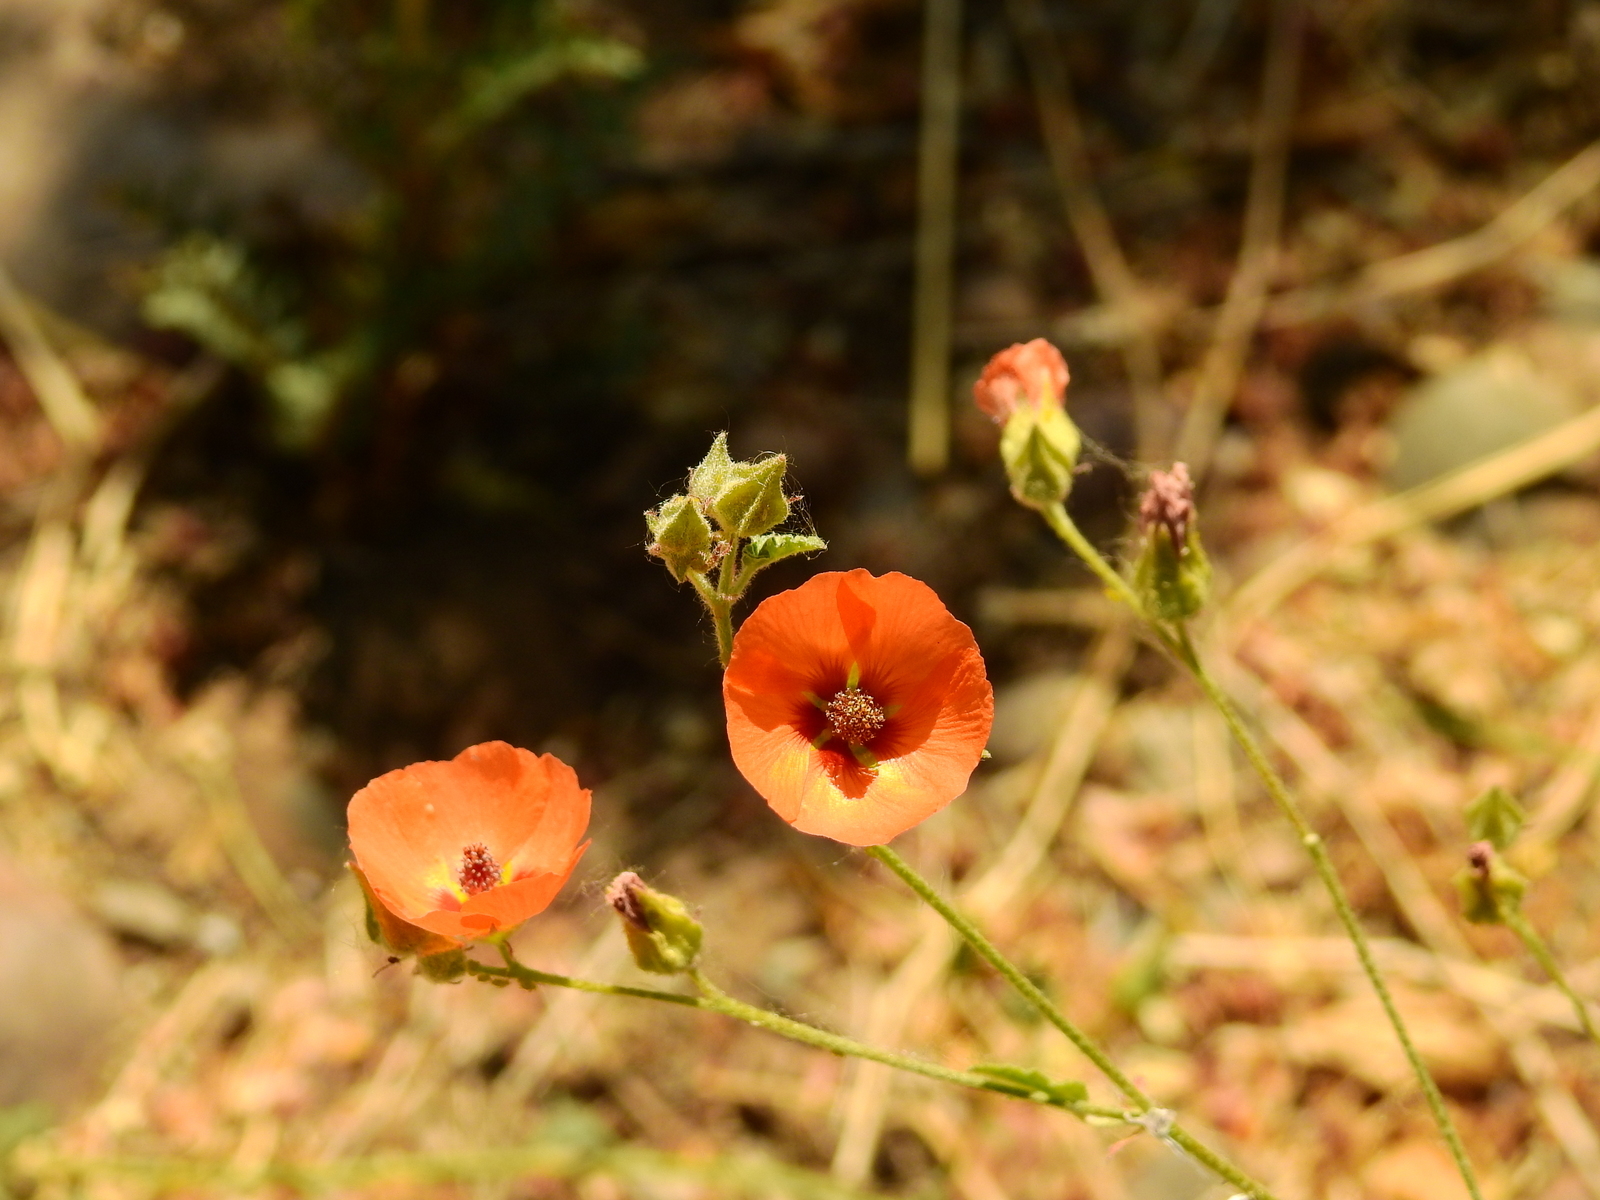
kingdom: Plantae
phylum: Tracheophyta
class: Magnoliopsida
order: Malvales
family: Malvaceae
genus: Sphaeralcea
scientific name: Sphaeralcea miniata
